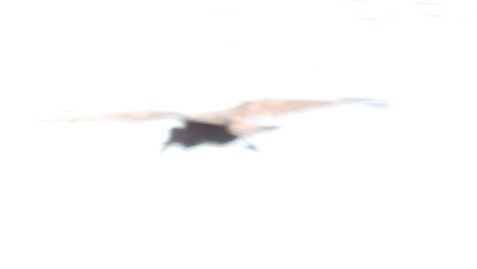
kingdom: Animalia
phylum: Chordata
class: Aves
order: Pelecaniformes
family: Scopidae
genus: Scopus
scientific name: Scopus umbretta
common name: Hamerkop
